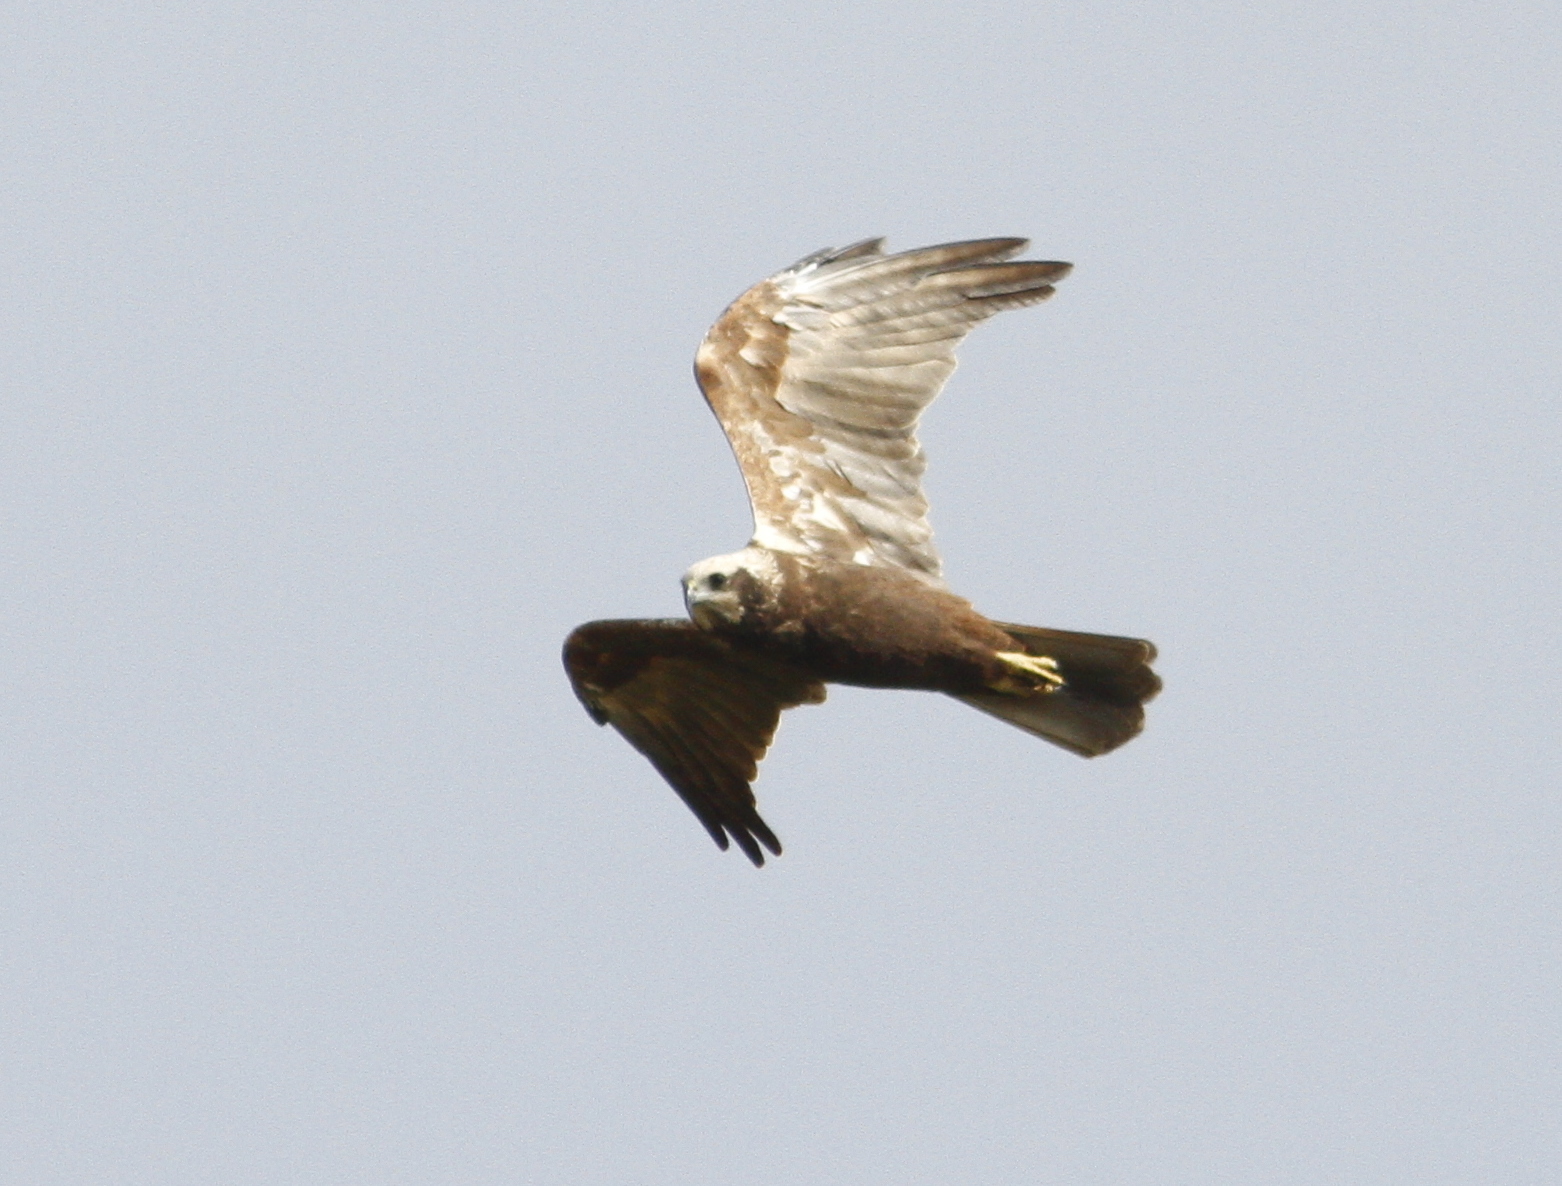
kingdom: Animalia
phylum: Chordata
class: Aves
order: Accipitriformes
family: Accipitridae
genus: Circus
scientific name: Circus aeruginosus
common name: Western marsh harrier
